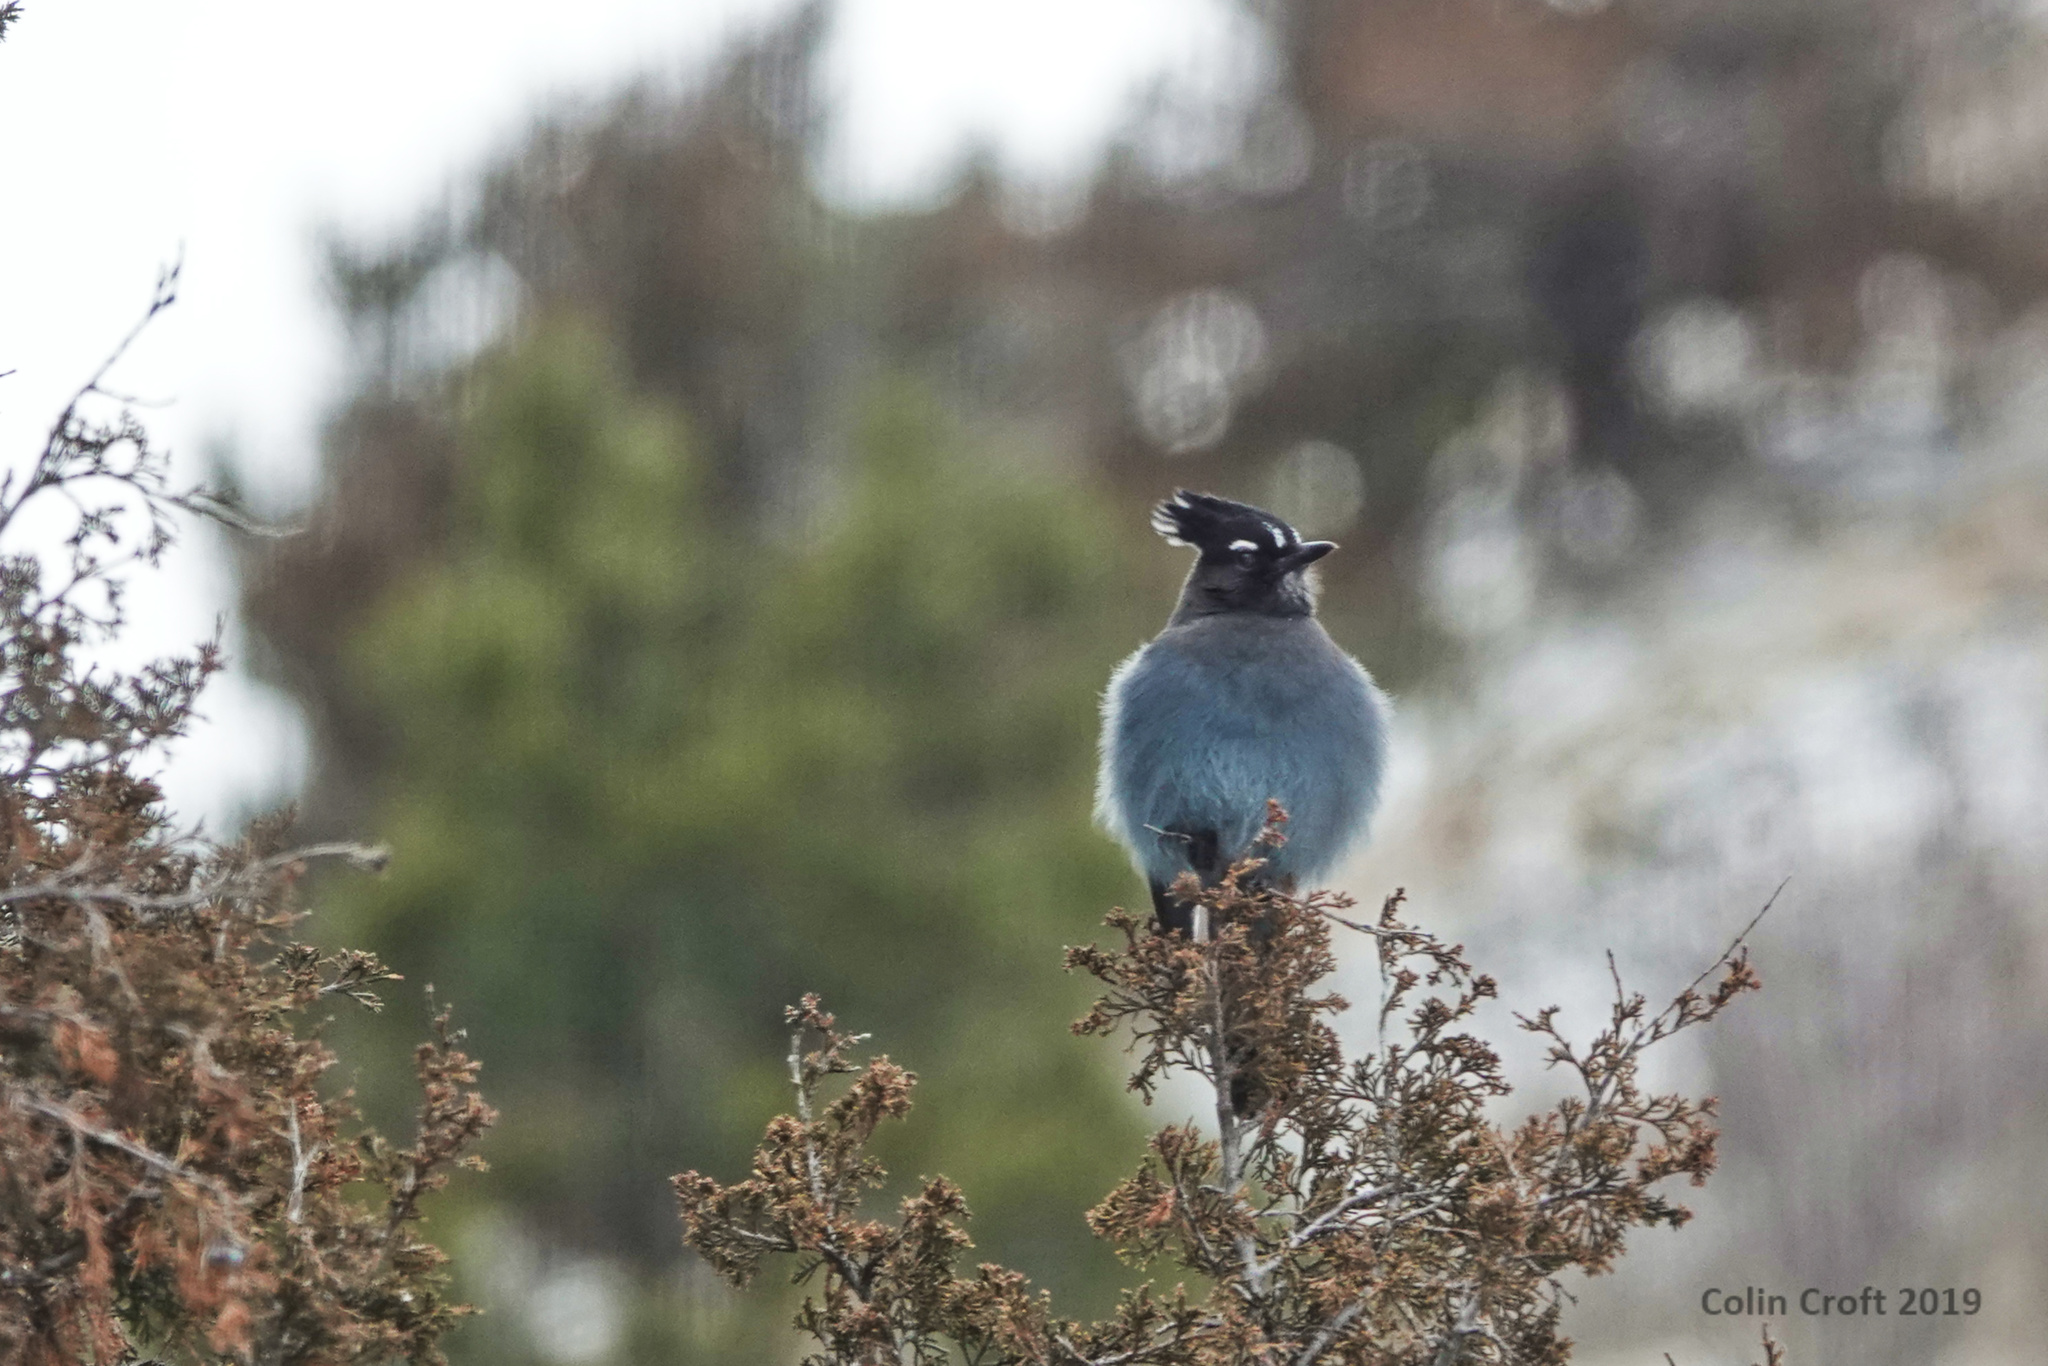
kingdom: Animalia
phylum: Chordata
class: Aves
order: Passeriformes
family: Corvidae
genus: Cyanocitta
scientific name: Cyanocitta stelleri
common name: Steller's jay
